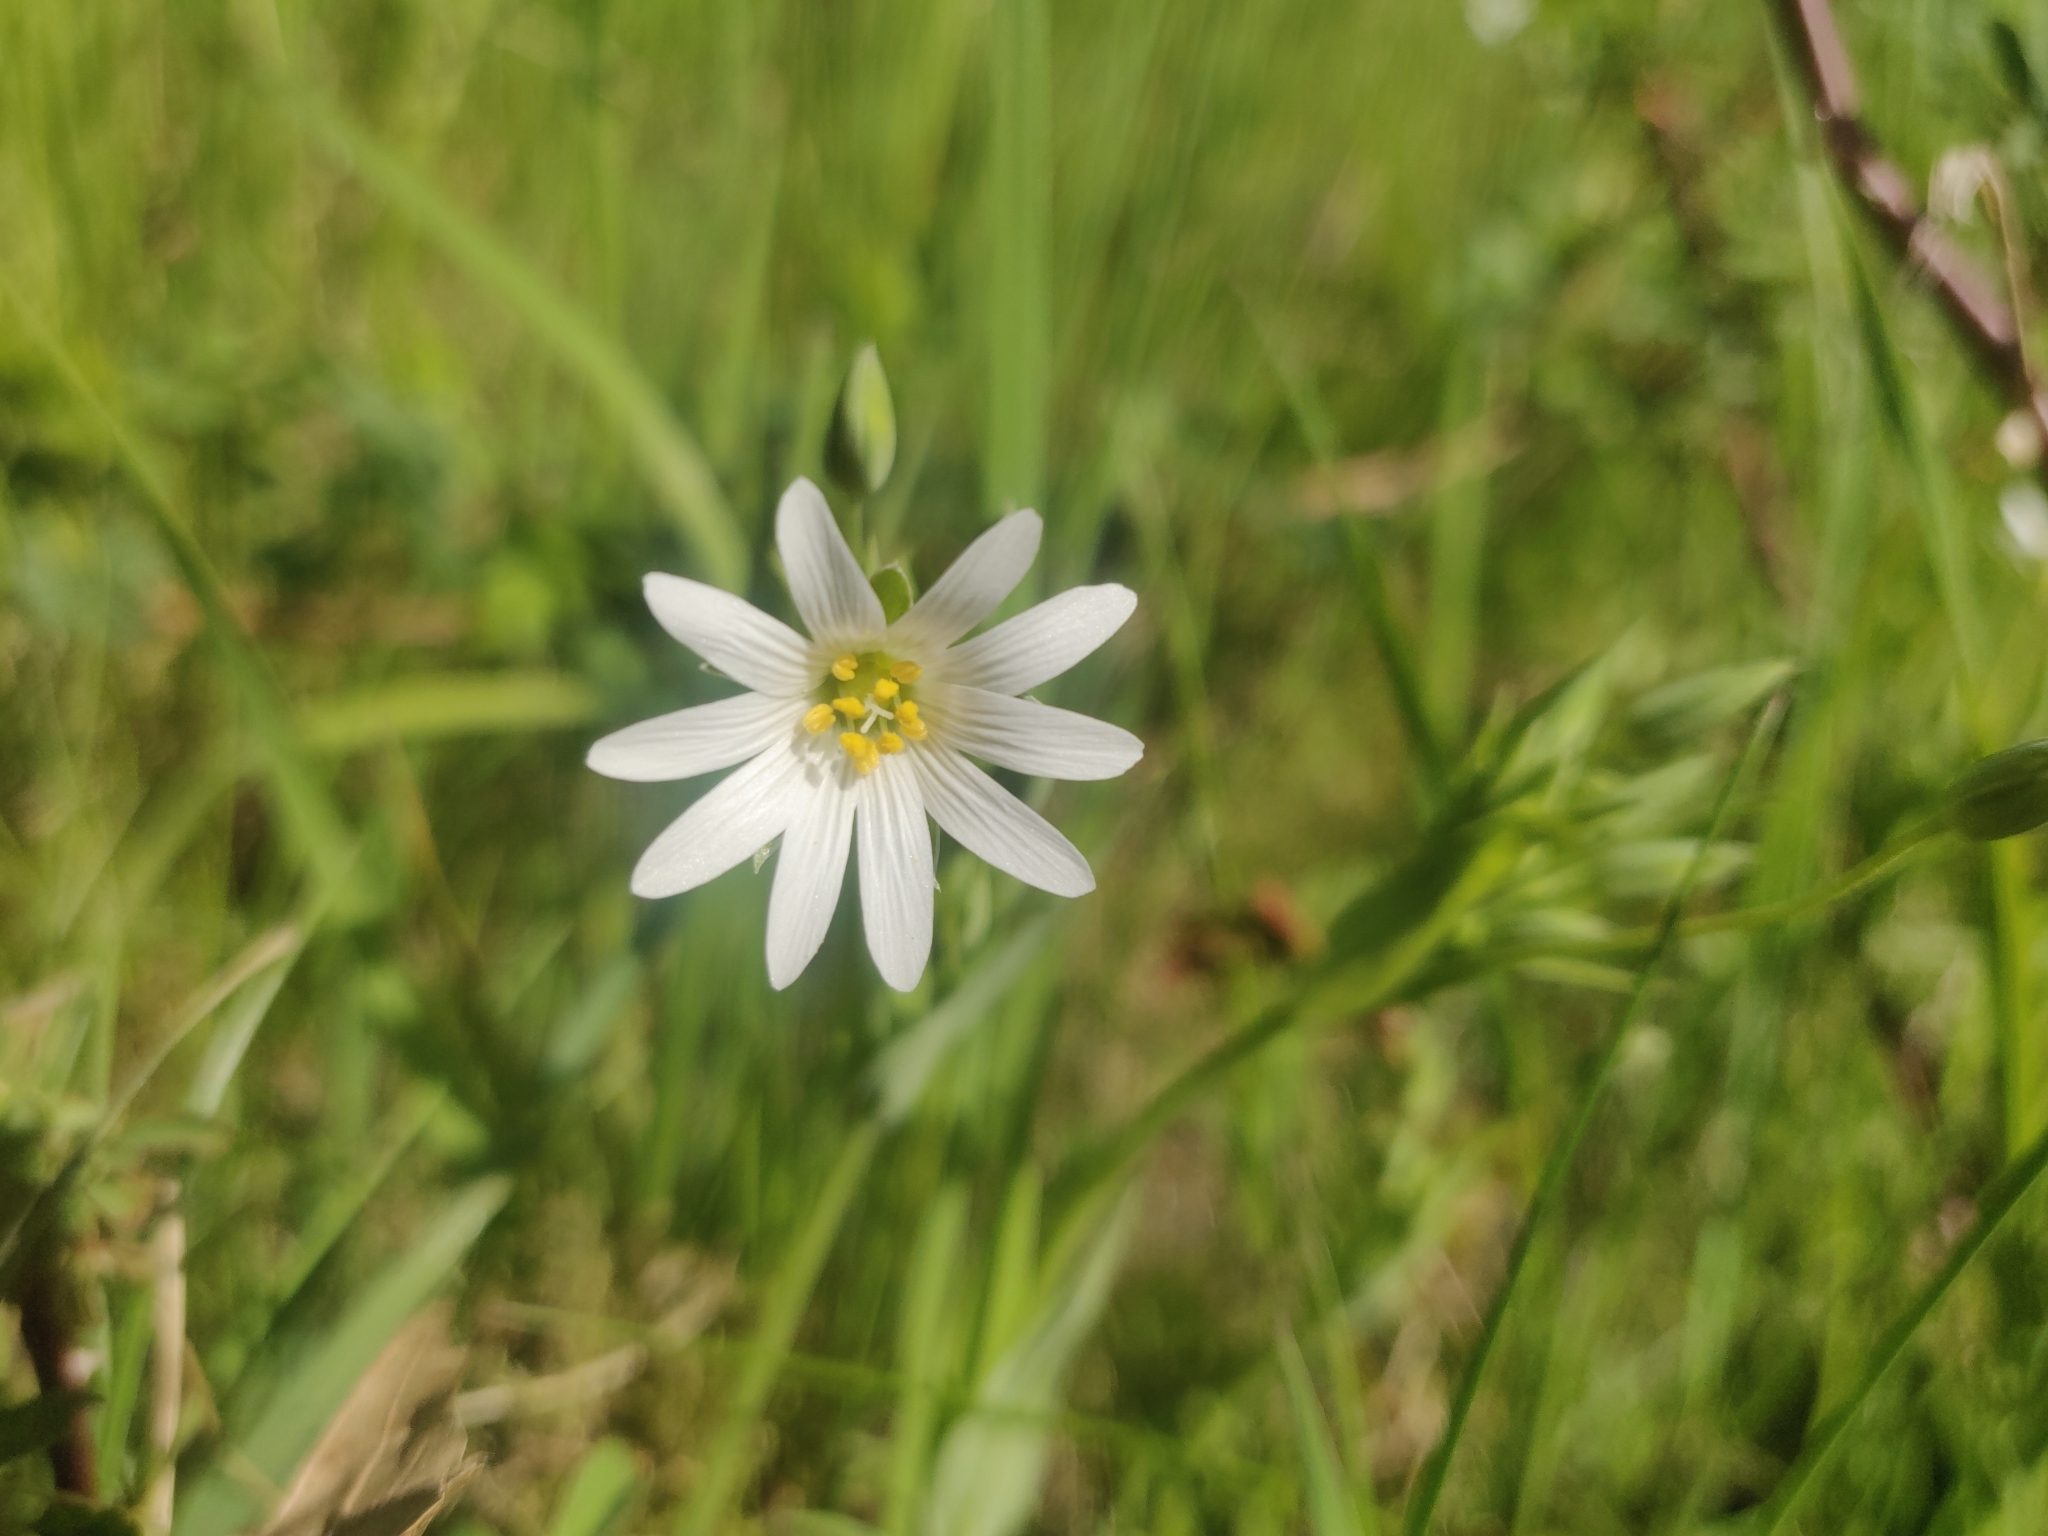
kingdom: Plantae
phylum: Tracheophyta
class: Magnoliopsida
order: Caryophyllales
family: Caryophyllaceae
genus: Rabelera
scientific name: Rabelera holostea
